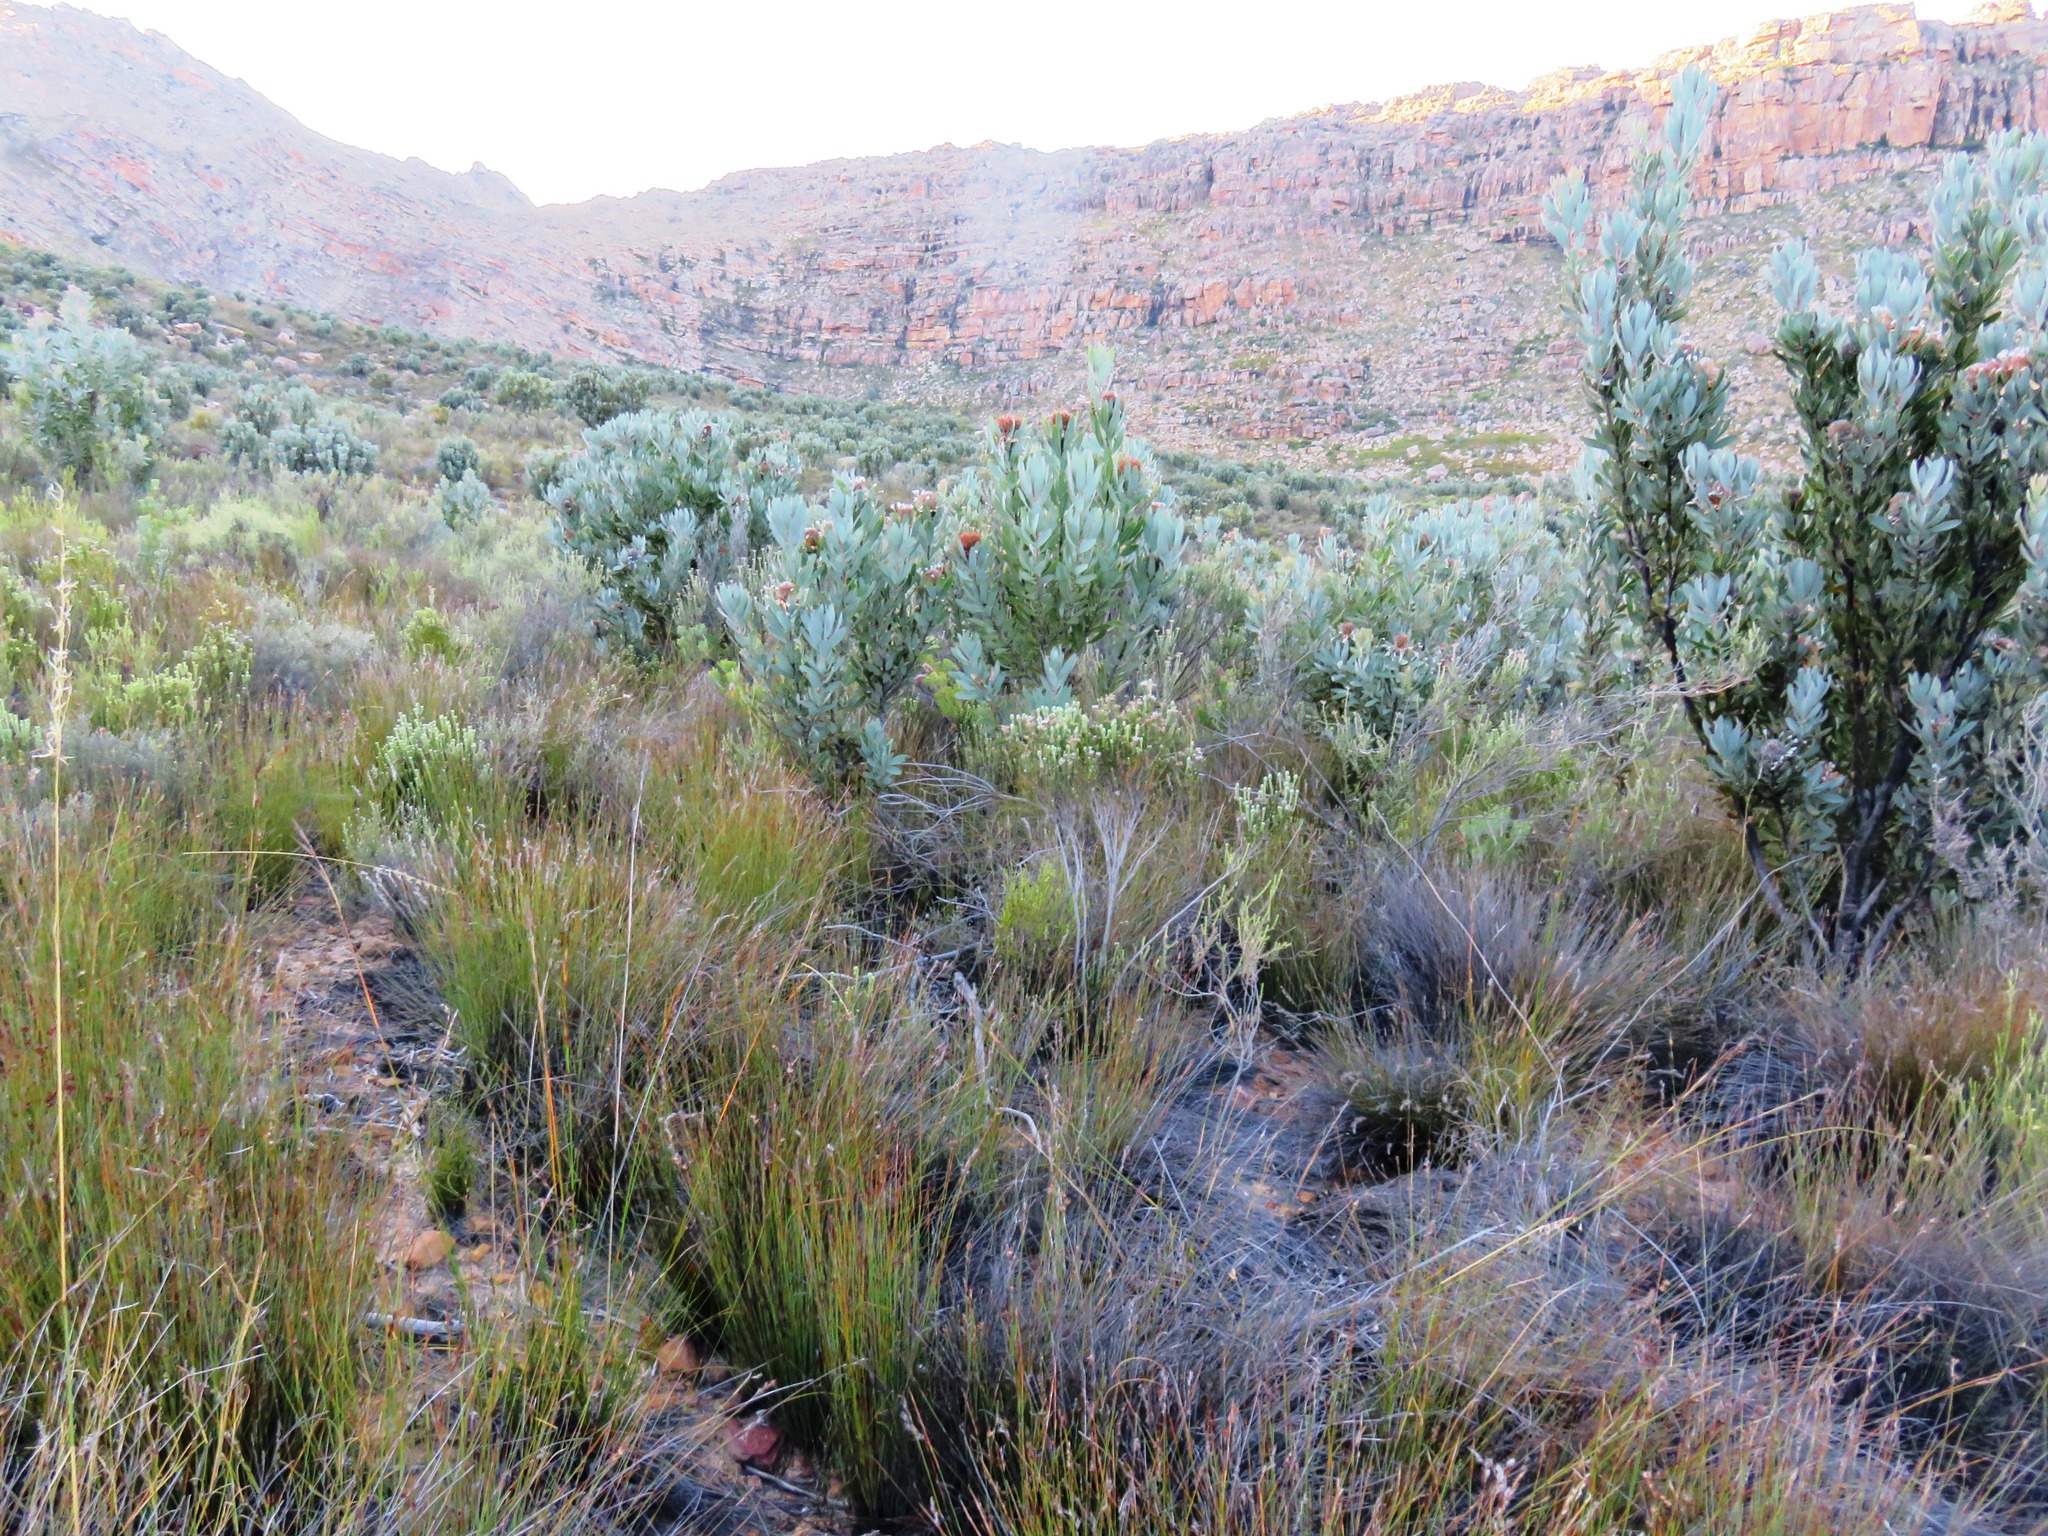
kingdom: Plantae
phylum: Tracheophyta
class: Magnoliopsida
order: Proteales
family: Proteaceae
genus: Protea
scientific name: Protea laurifolia
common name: Grey-leaf sugarbsh
